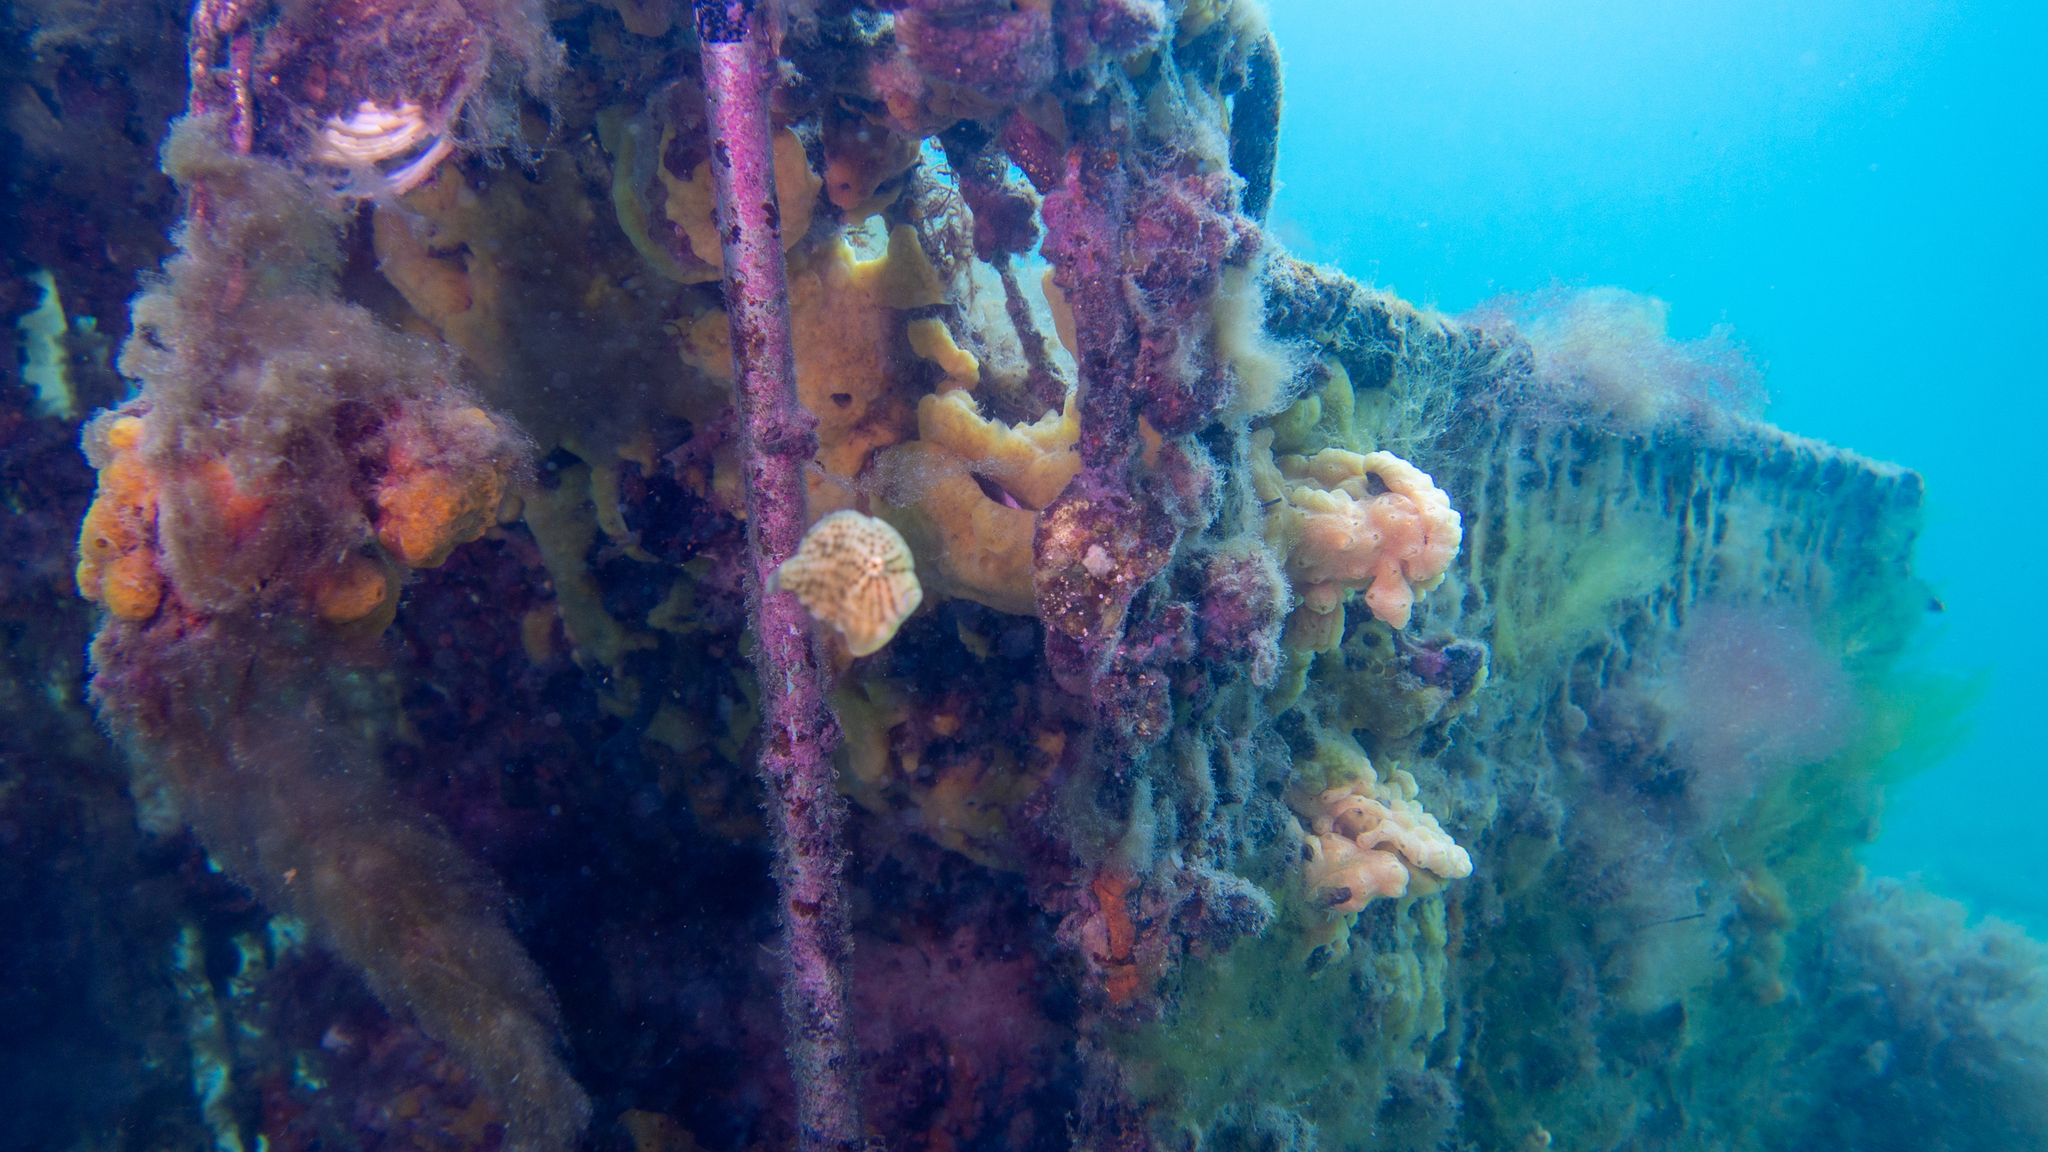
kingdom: Animalia
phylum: Chordata
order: Tetraodontiformes
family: Monacanthidae
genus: Brachaluteres
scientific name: Brachaluteres jacksonianus
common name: Pigmy leatherjacket
